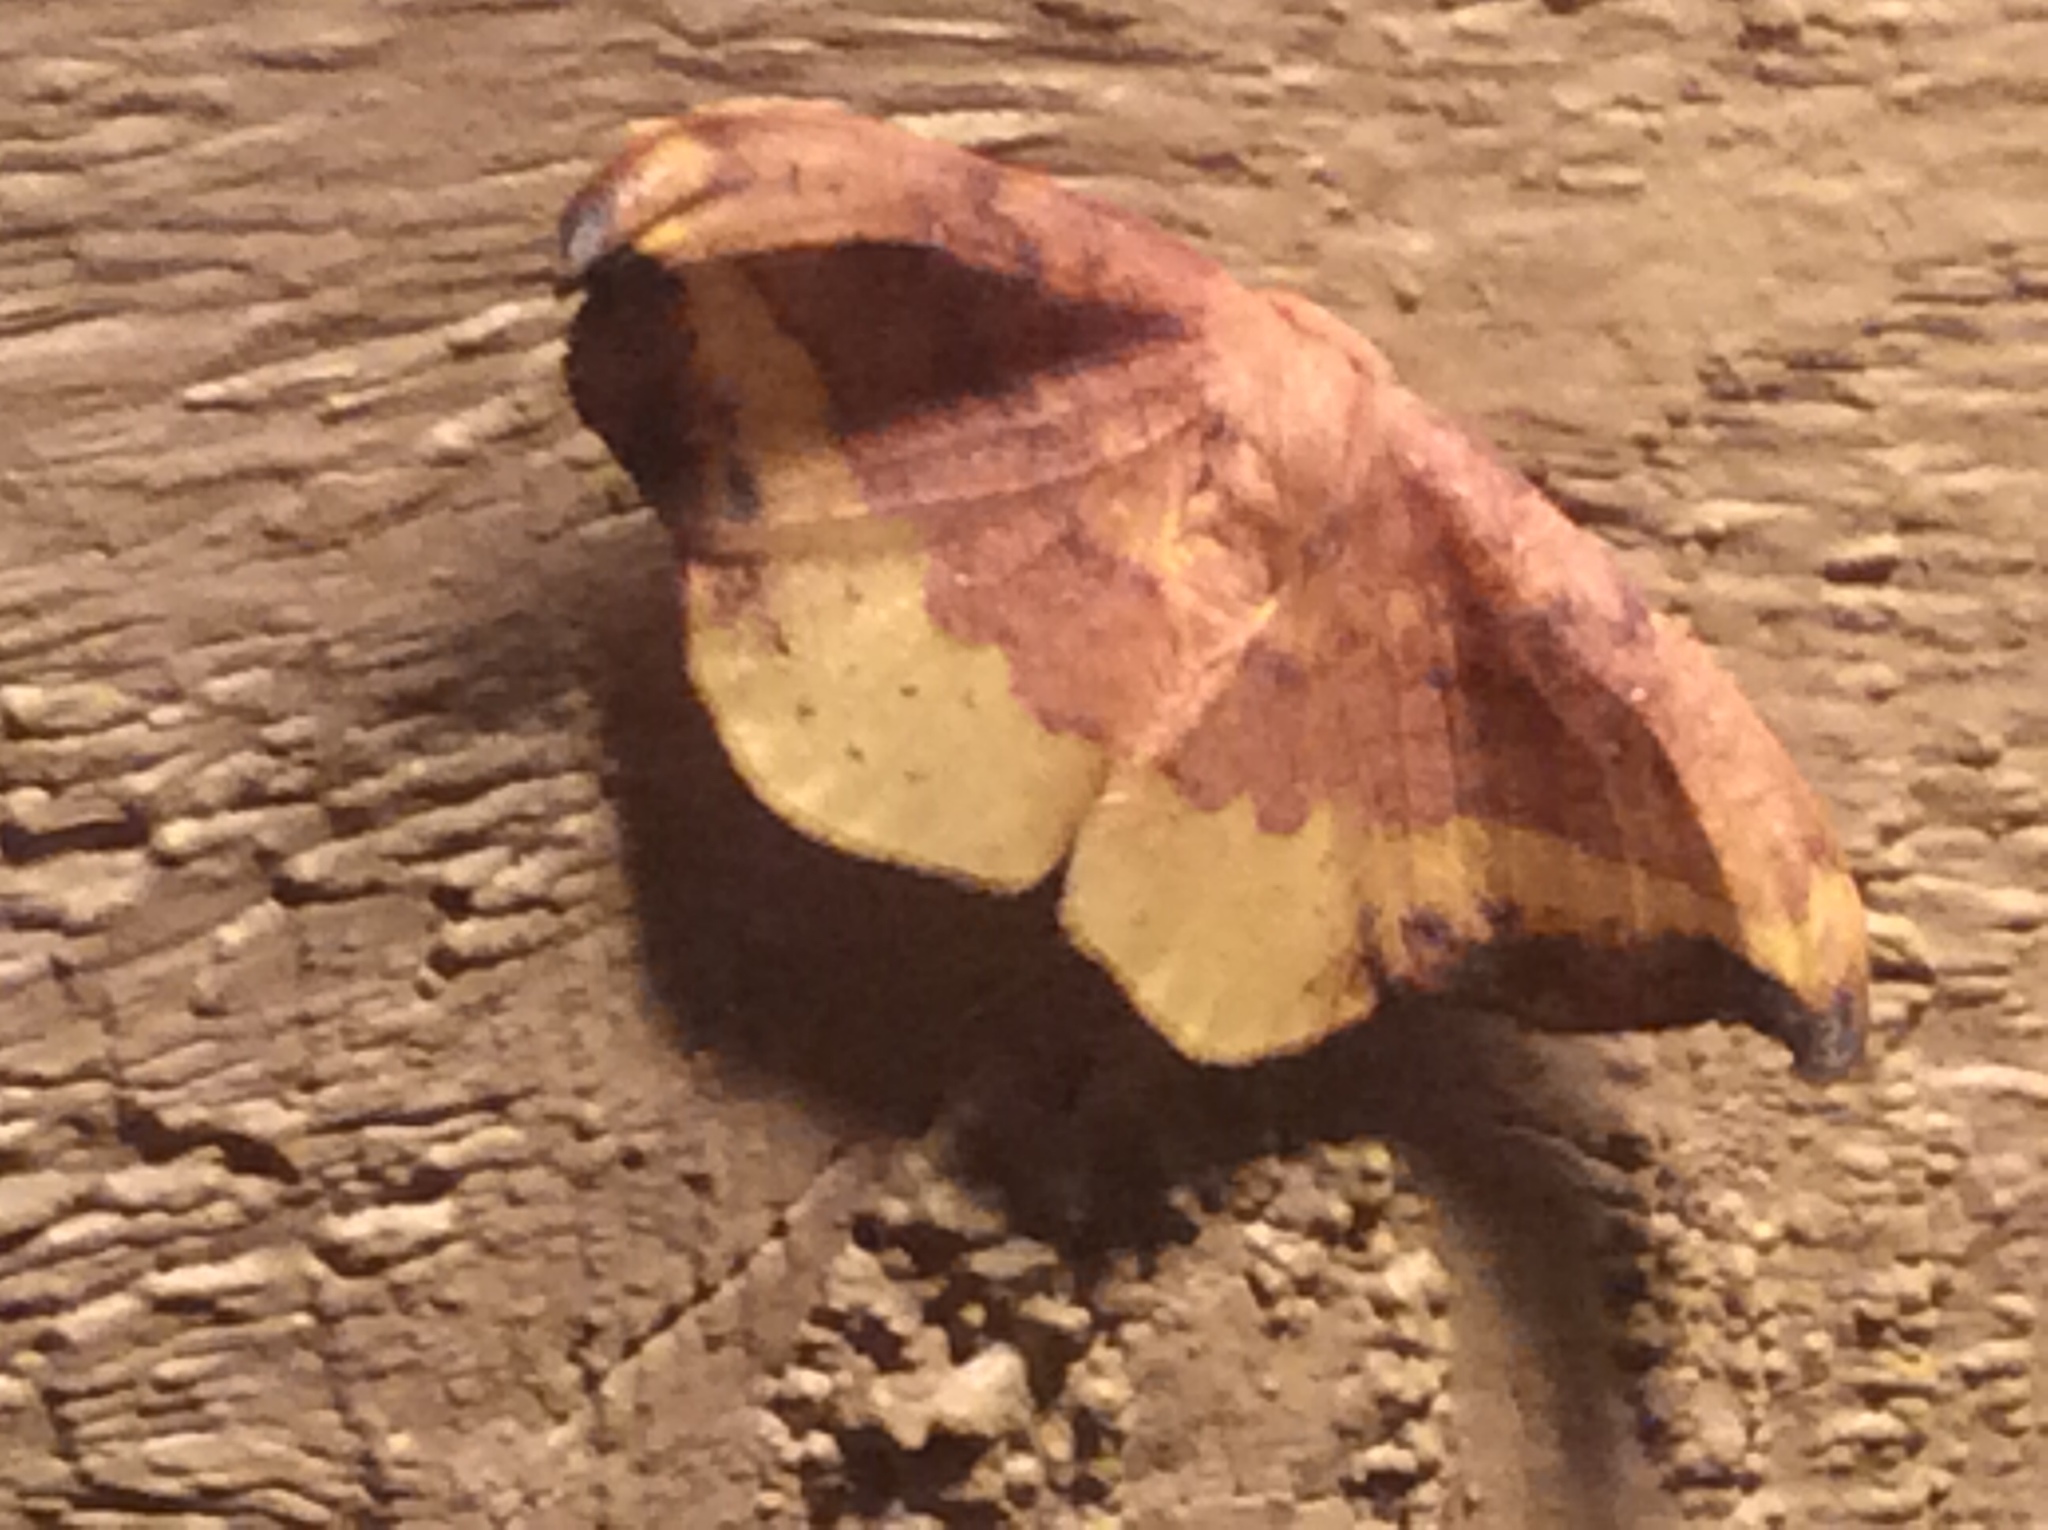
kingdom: Animalia
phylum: Arthropoda
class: Insecta
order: Lepidoptera
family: Drepanidae
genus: Oreta
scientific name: Oreta rosea
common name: Rose hooktip
